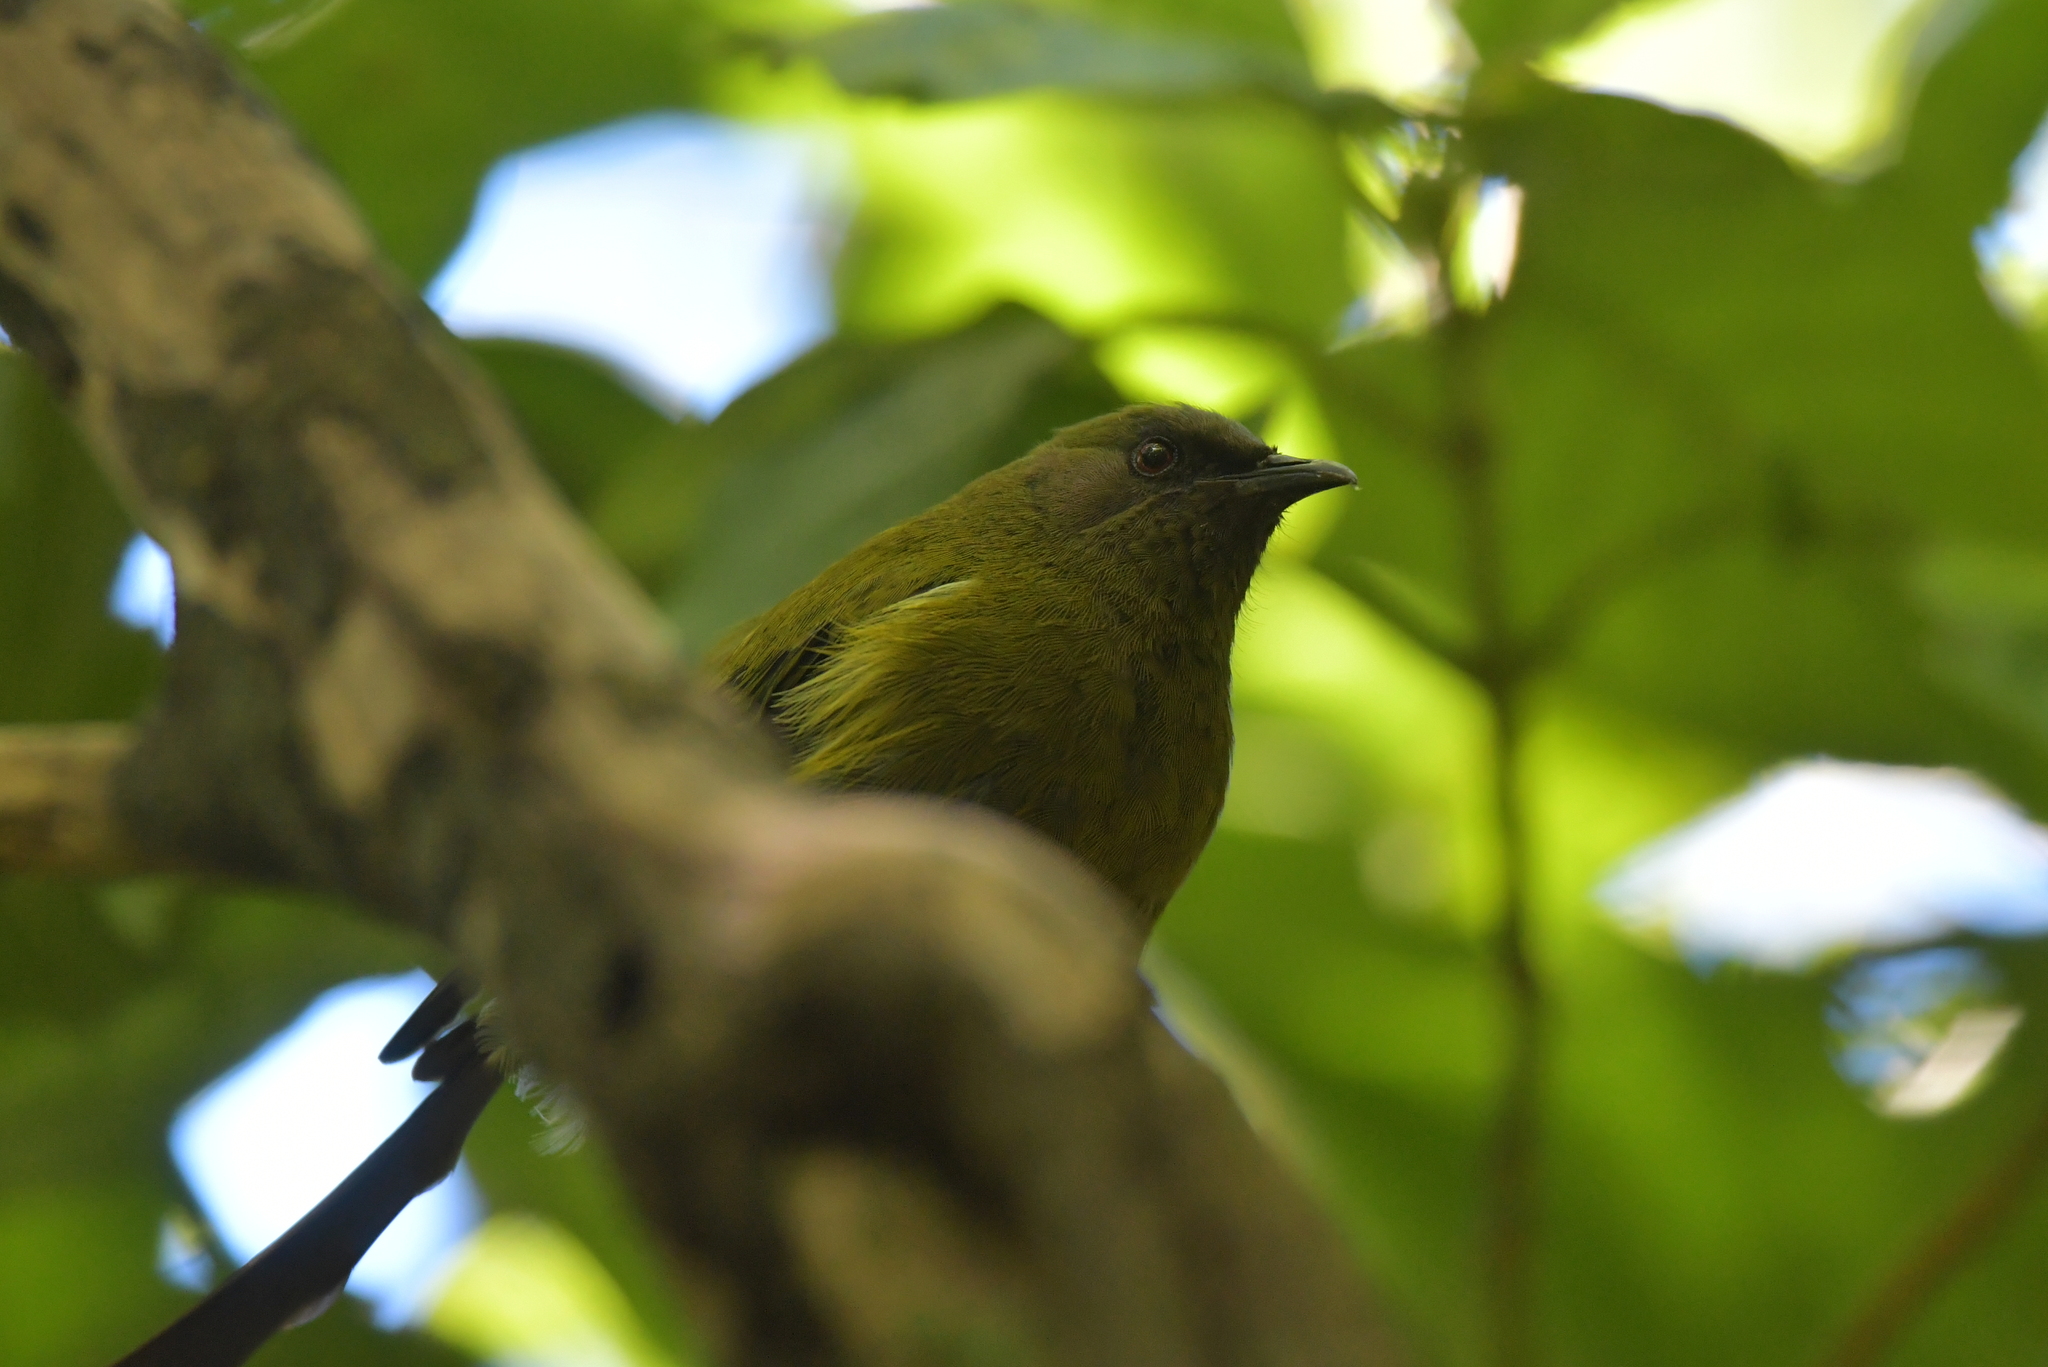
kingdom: Animalia
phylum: Chordata
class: Aves
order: Passeriformes
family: Meliphagidae
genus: Anthornis
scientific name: Anthornis melanura
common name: New zealand bellbird
